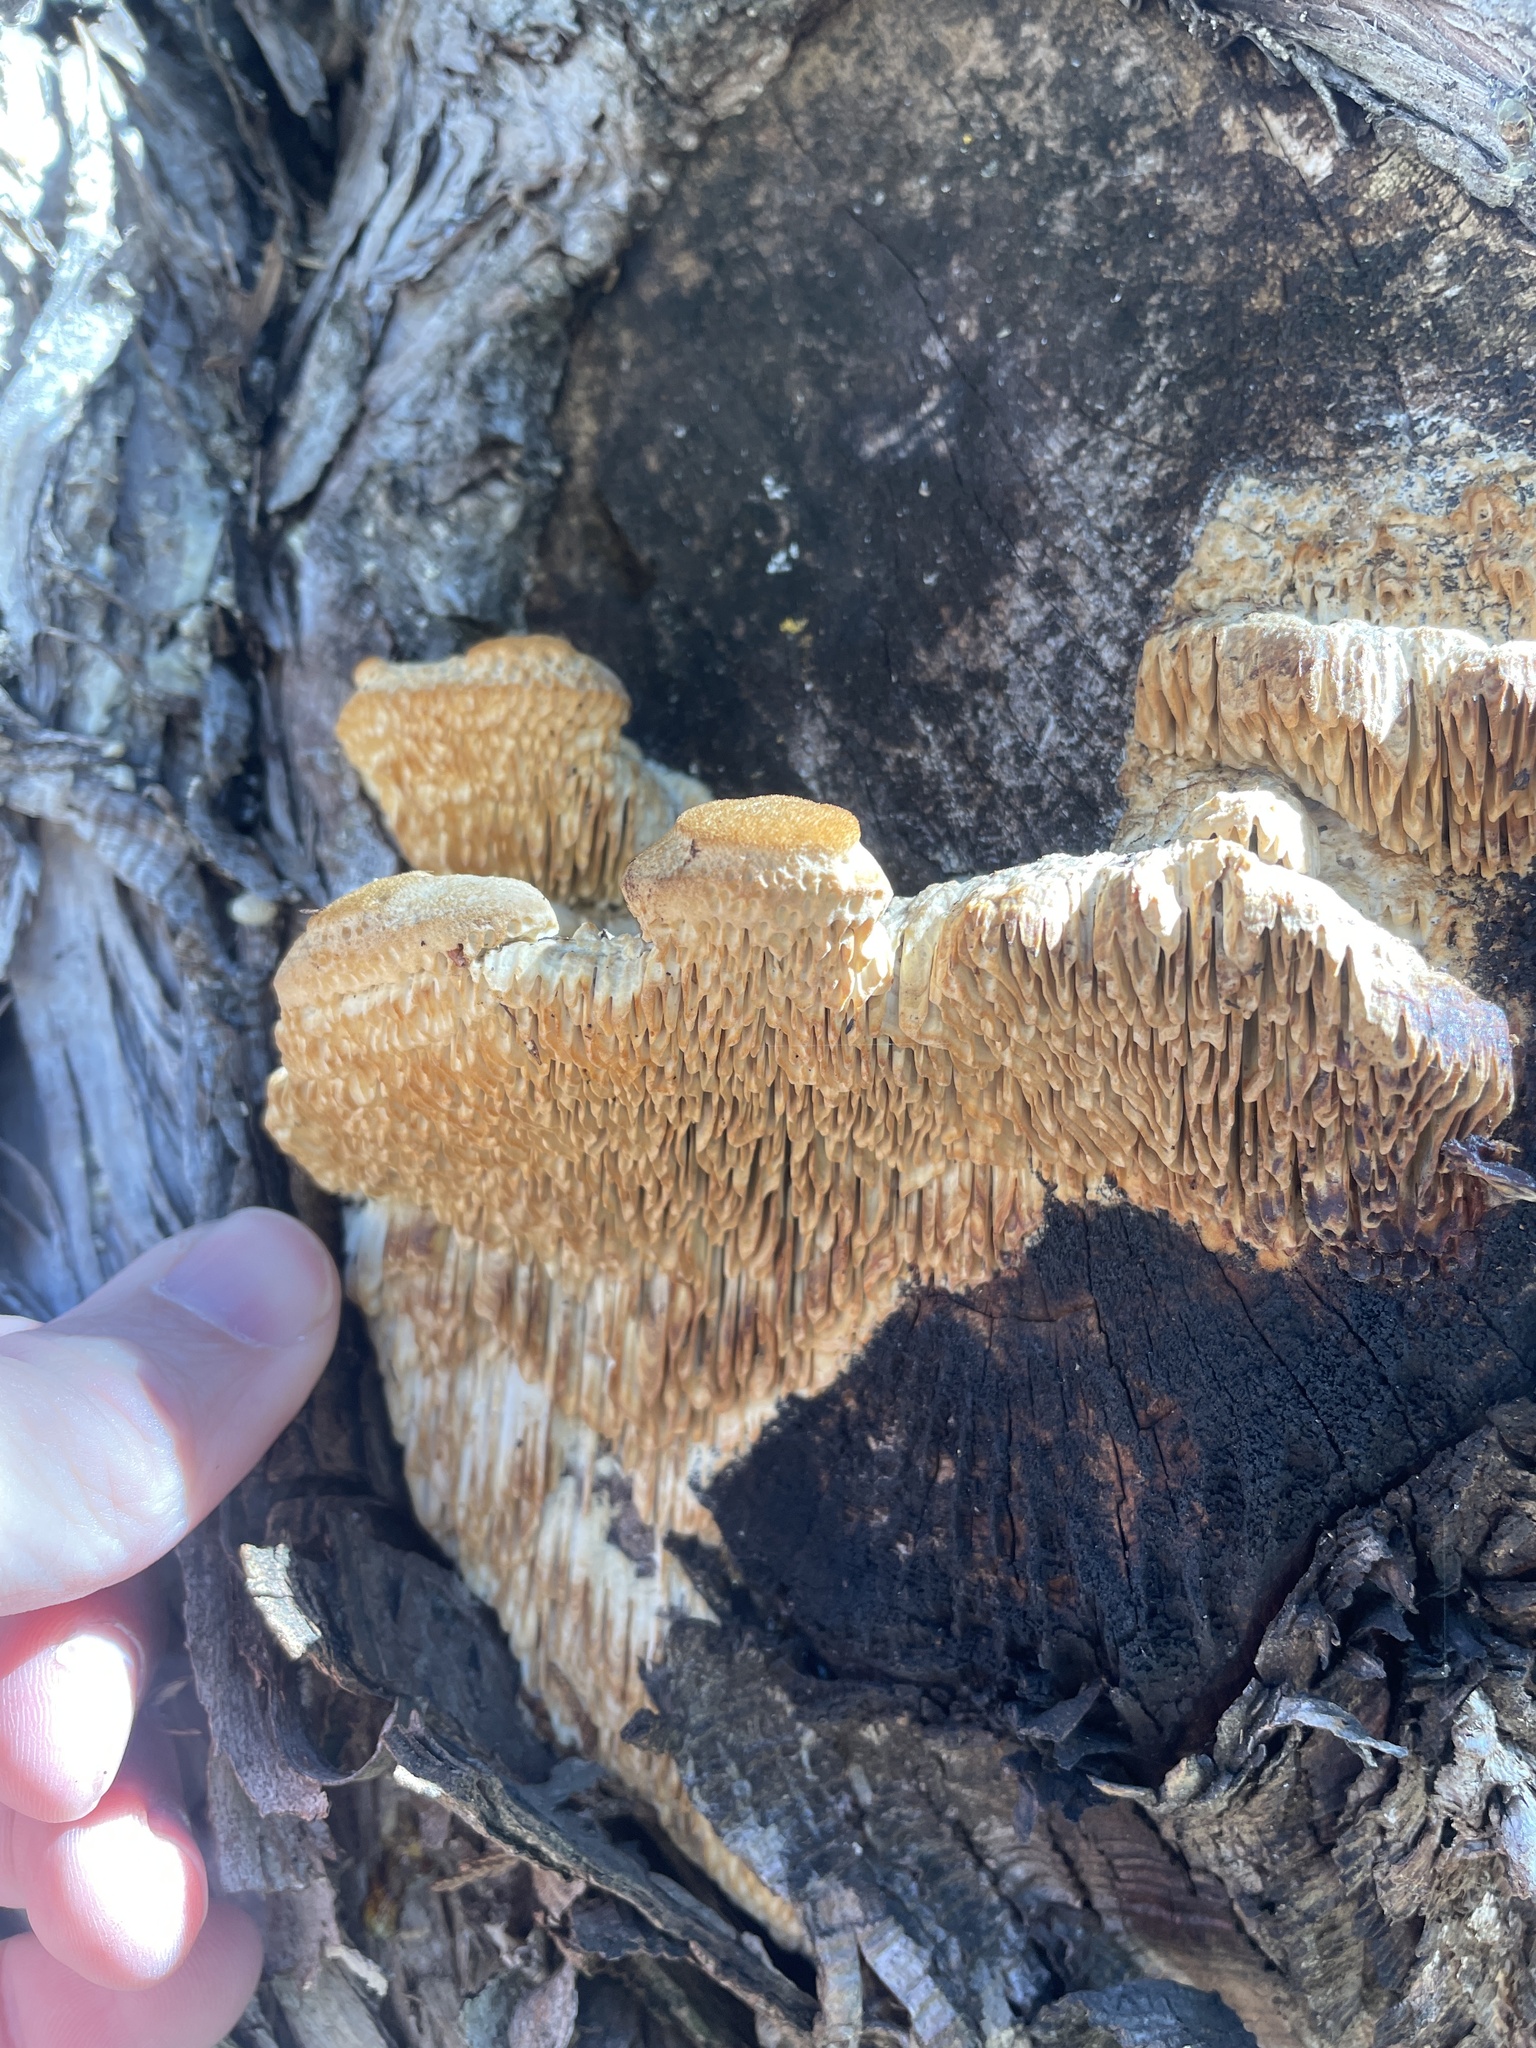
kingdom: Fungi
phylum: Basidiomycota
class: Agaricomycetes
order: Polyporales
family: Fomitopsidaceae
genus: Fomitopsis
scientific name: Fomitopsis
